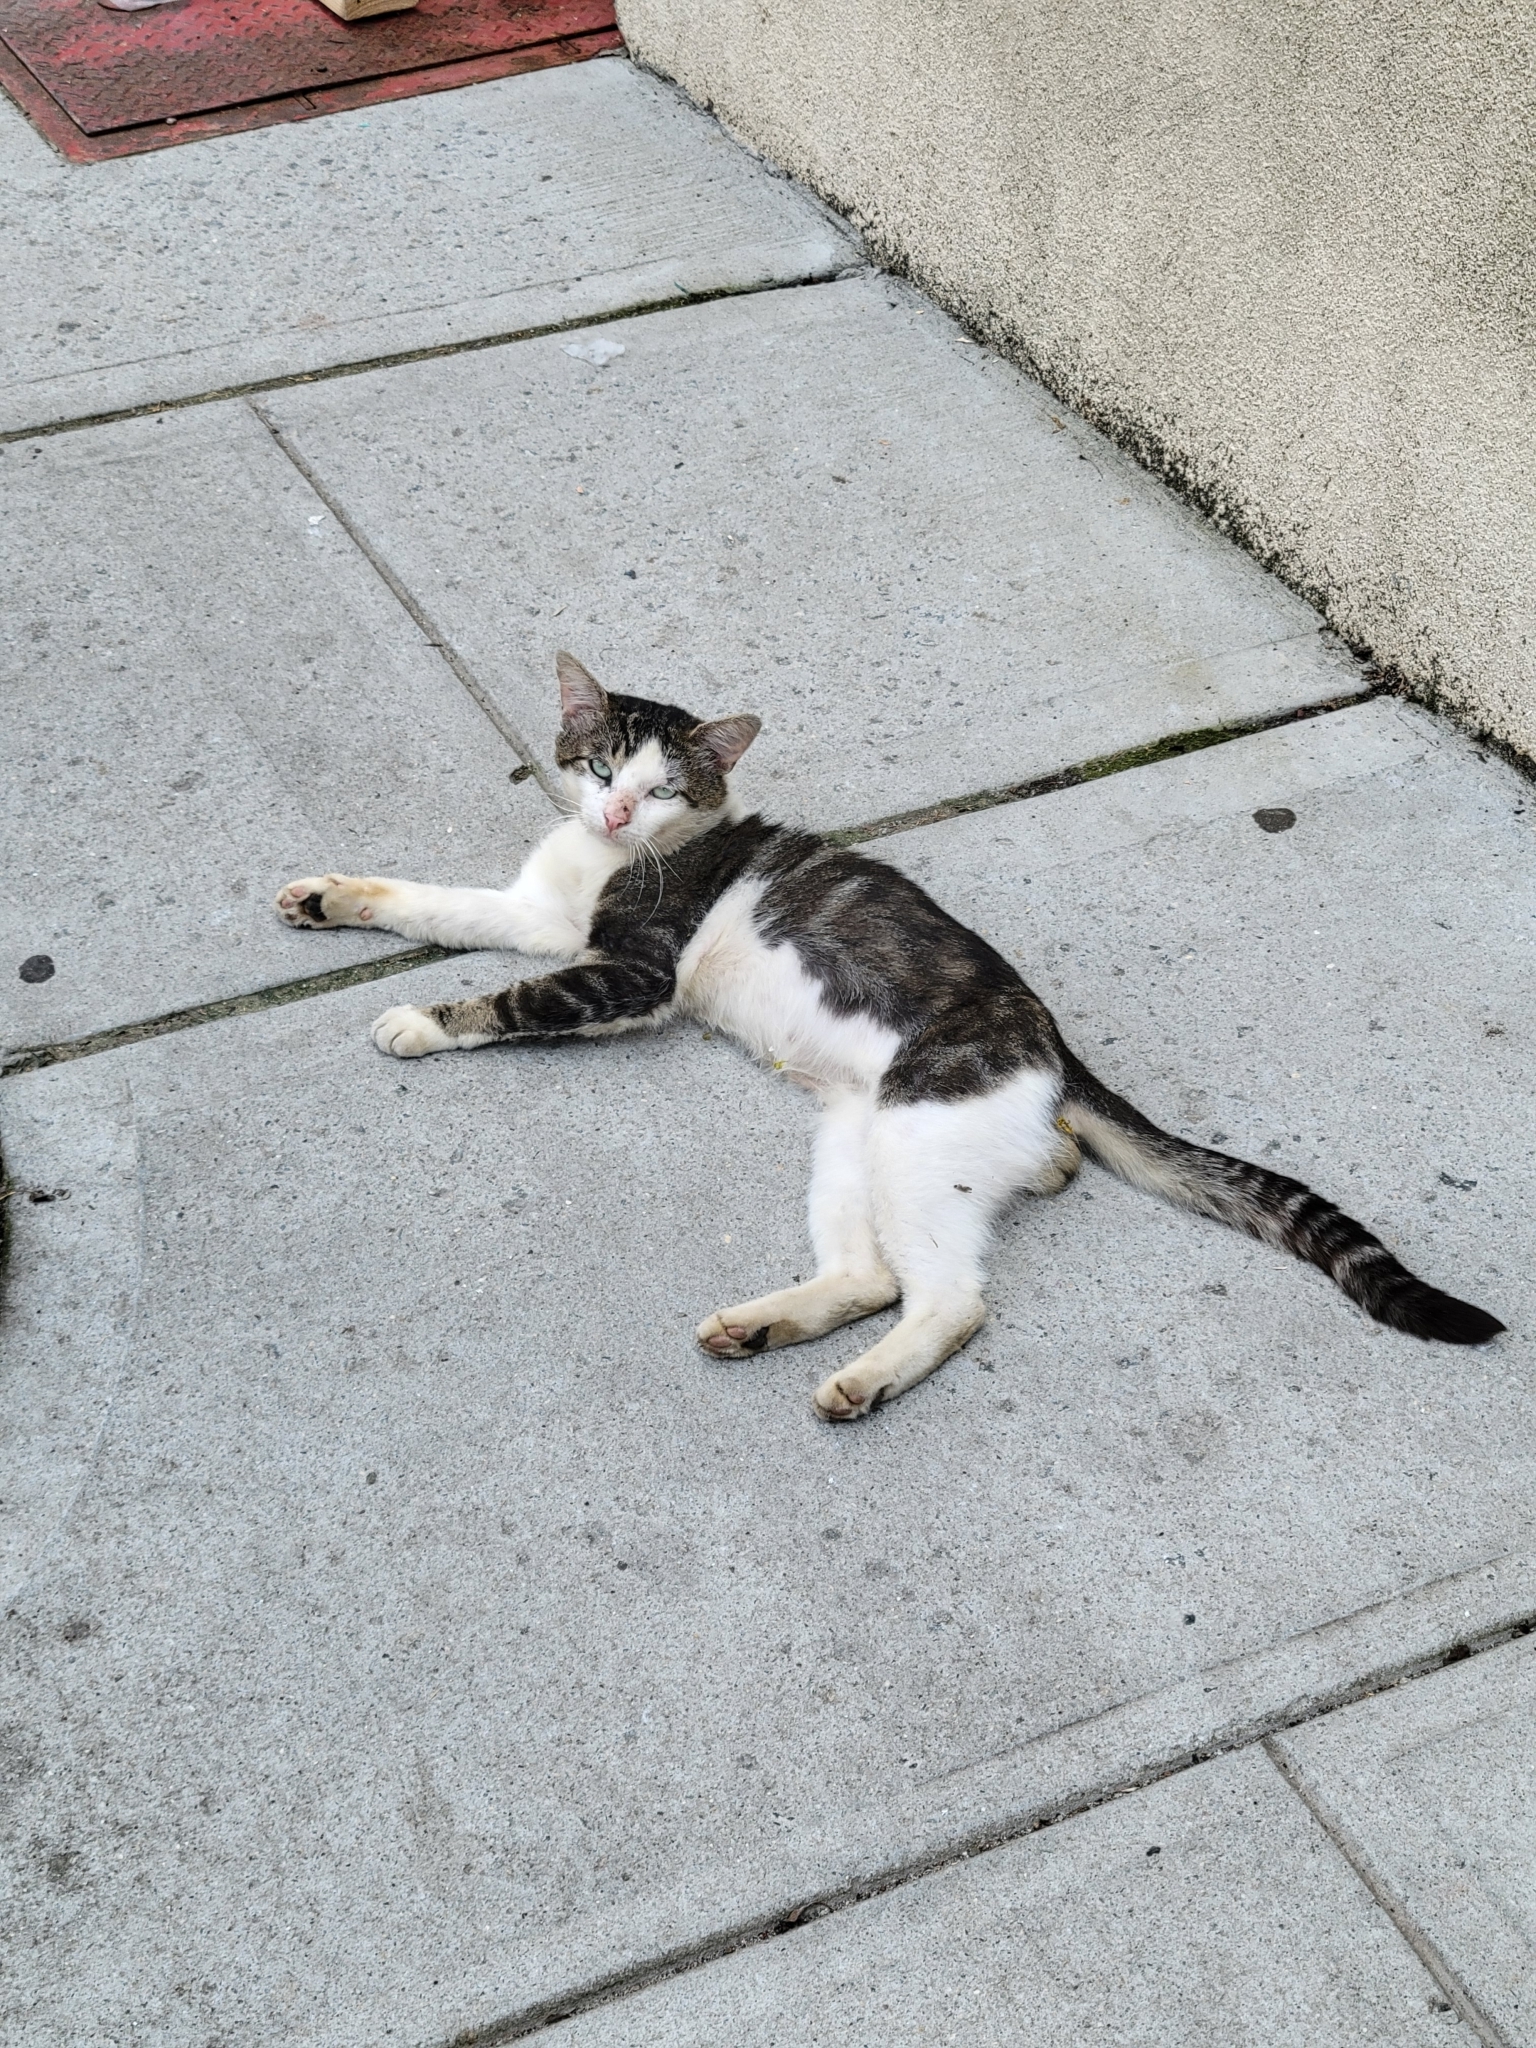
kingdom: Animalia
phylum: Chordata
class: Mammalia
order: Carnivora
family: Felidae
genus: Felis
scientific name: Felis catus
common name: Domestic cat
